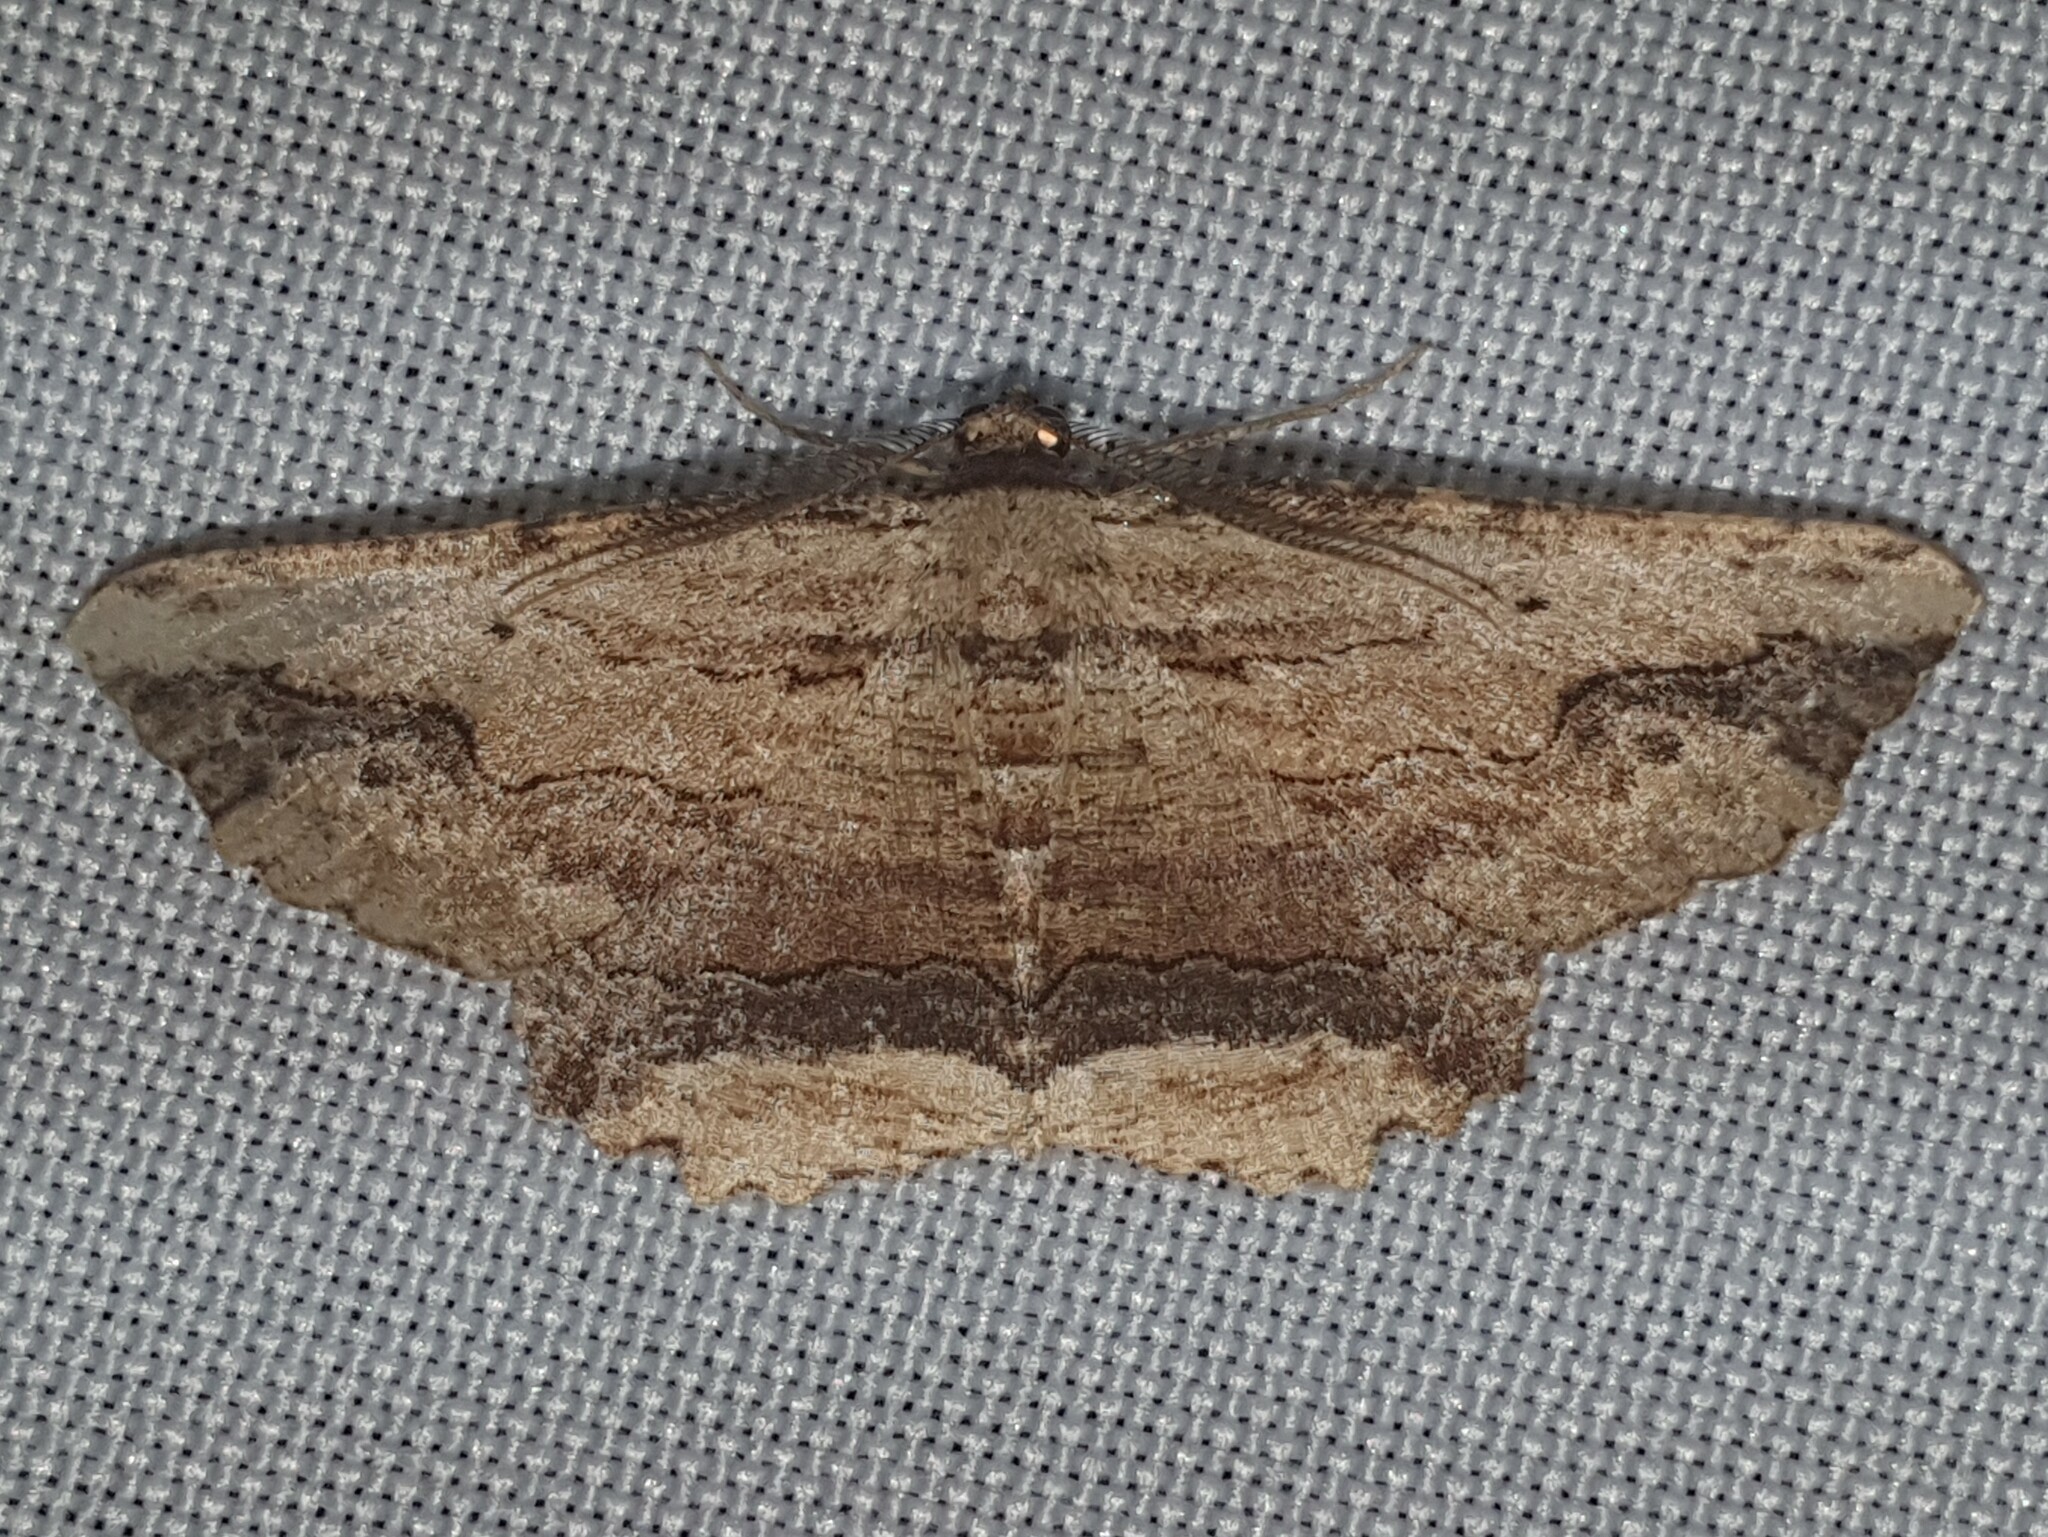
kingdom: Animalia
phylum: Arthropoda
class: Insecta
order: Lepidoptera
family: Geometridae
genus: Menophra
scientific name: Menophra abruptaria
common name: Waved umber
